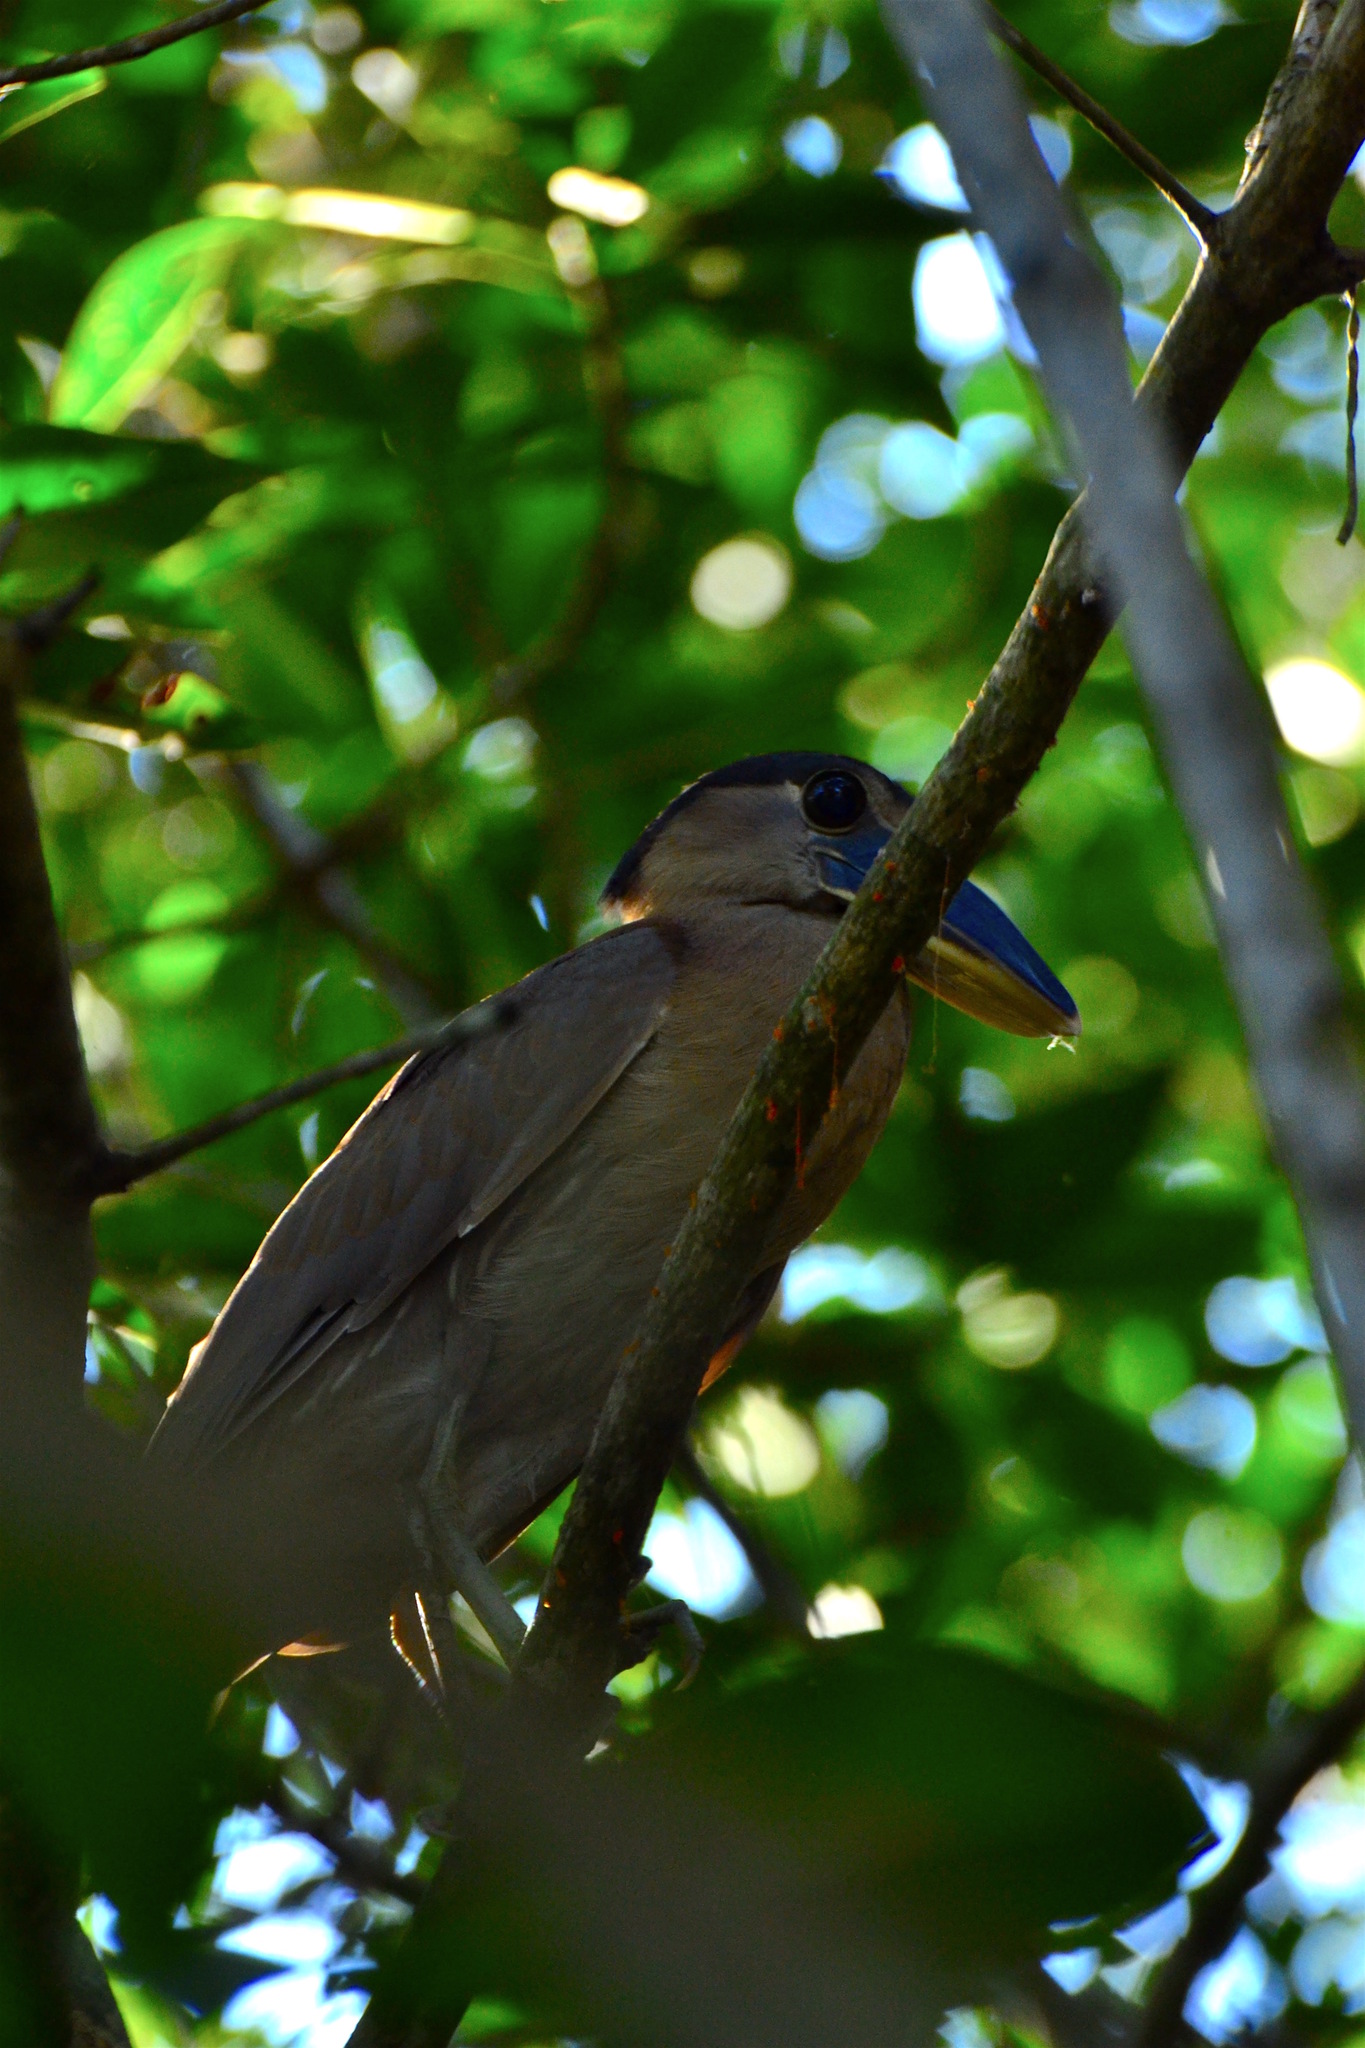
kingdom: Animalia
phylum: Chordata
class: Aves
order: Pelecaniformes
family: Ardeidae
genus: Cochlearius
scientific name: Cochlearius cochlearius
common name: Boat-billed heron
